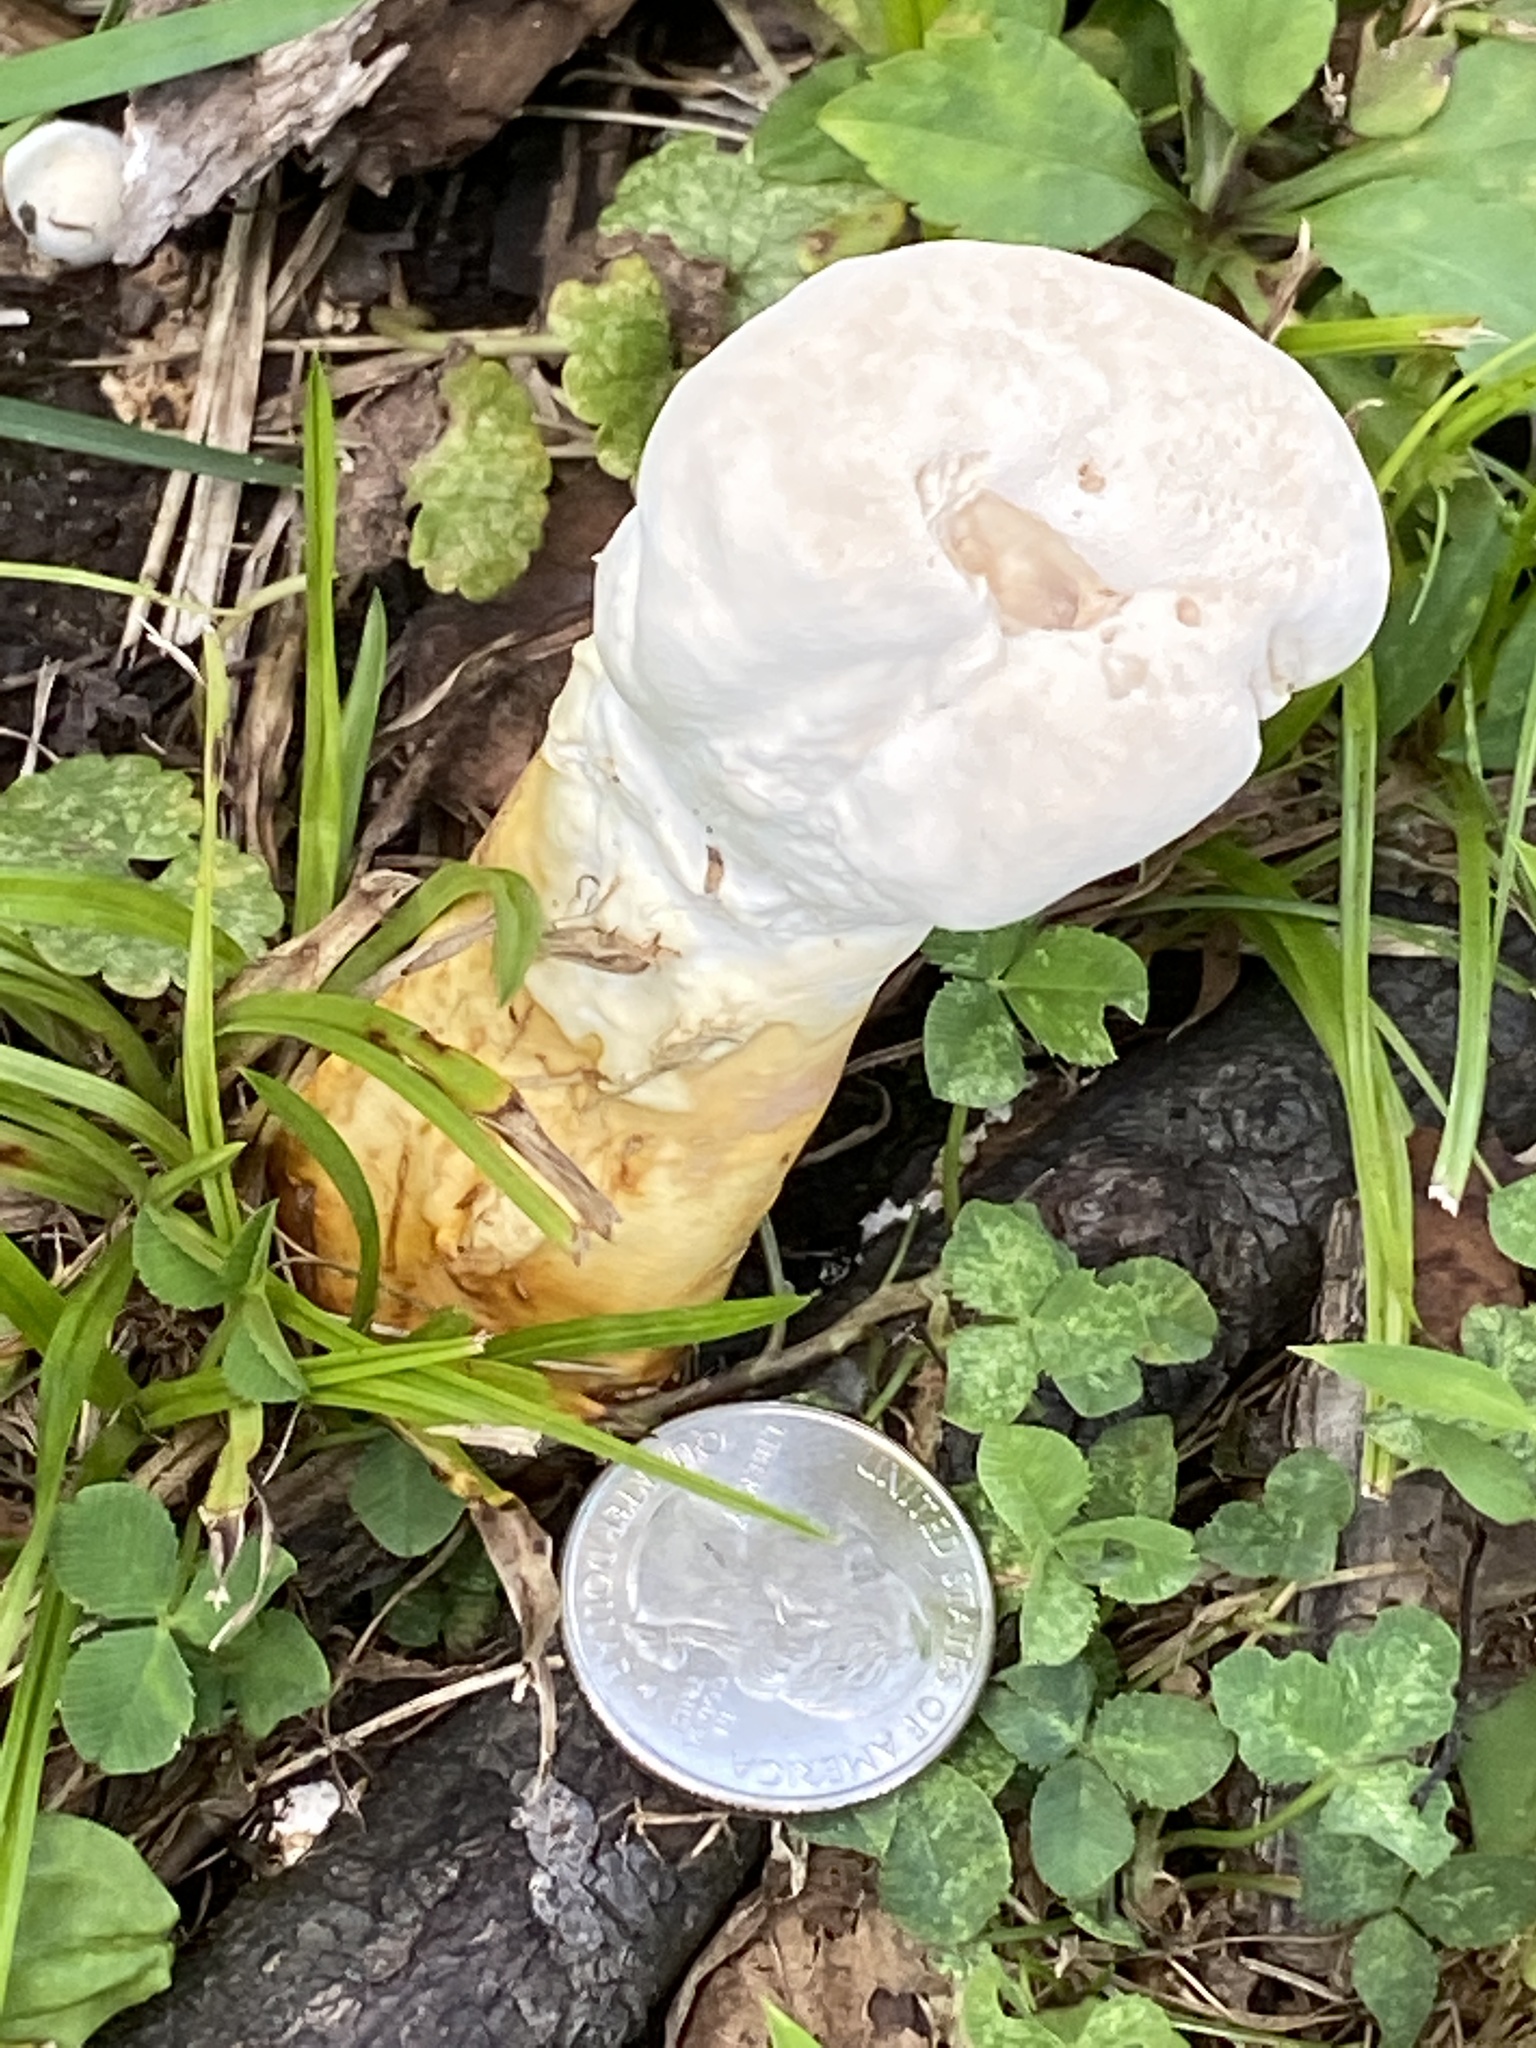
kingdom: Fungi
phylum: Basidiomycota
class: Agaricomycetes
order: Polyporales
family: Polyporaceae
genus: Ganoderma
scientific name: Ganoderma curtisii
